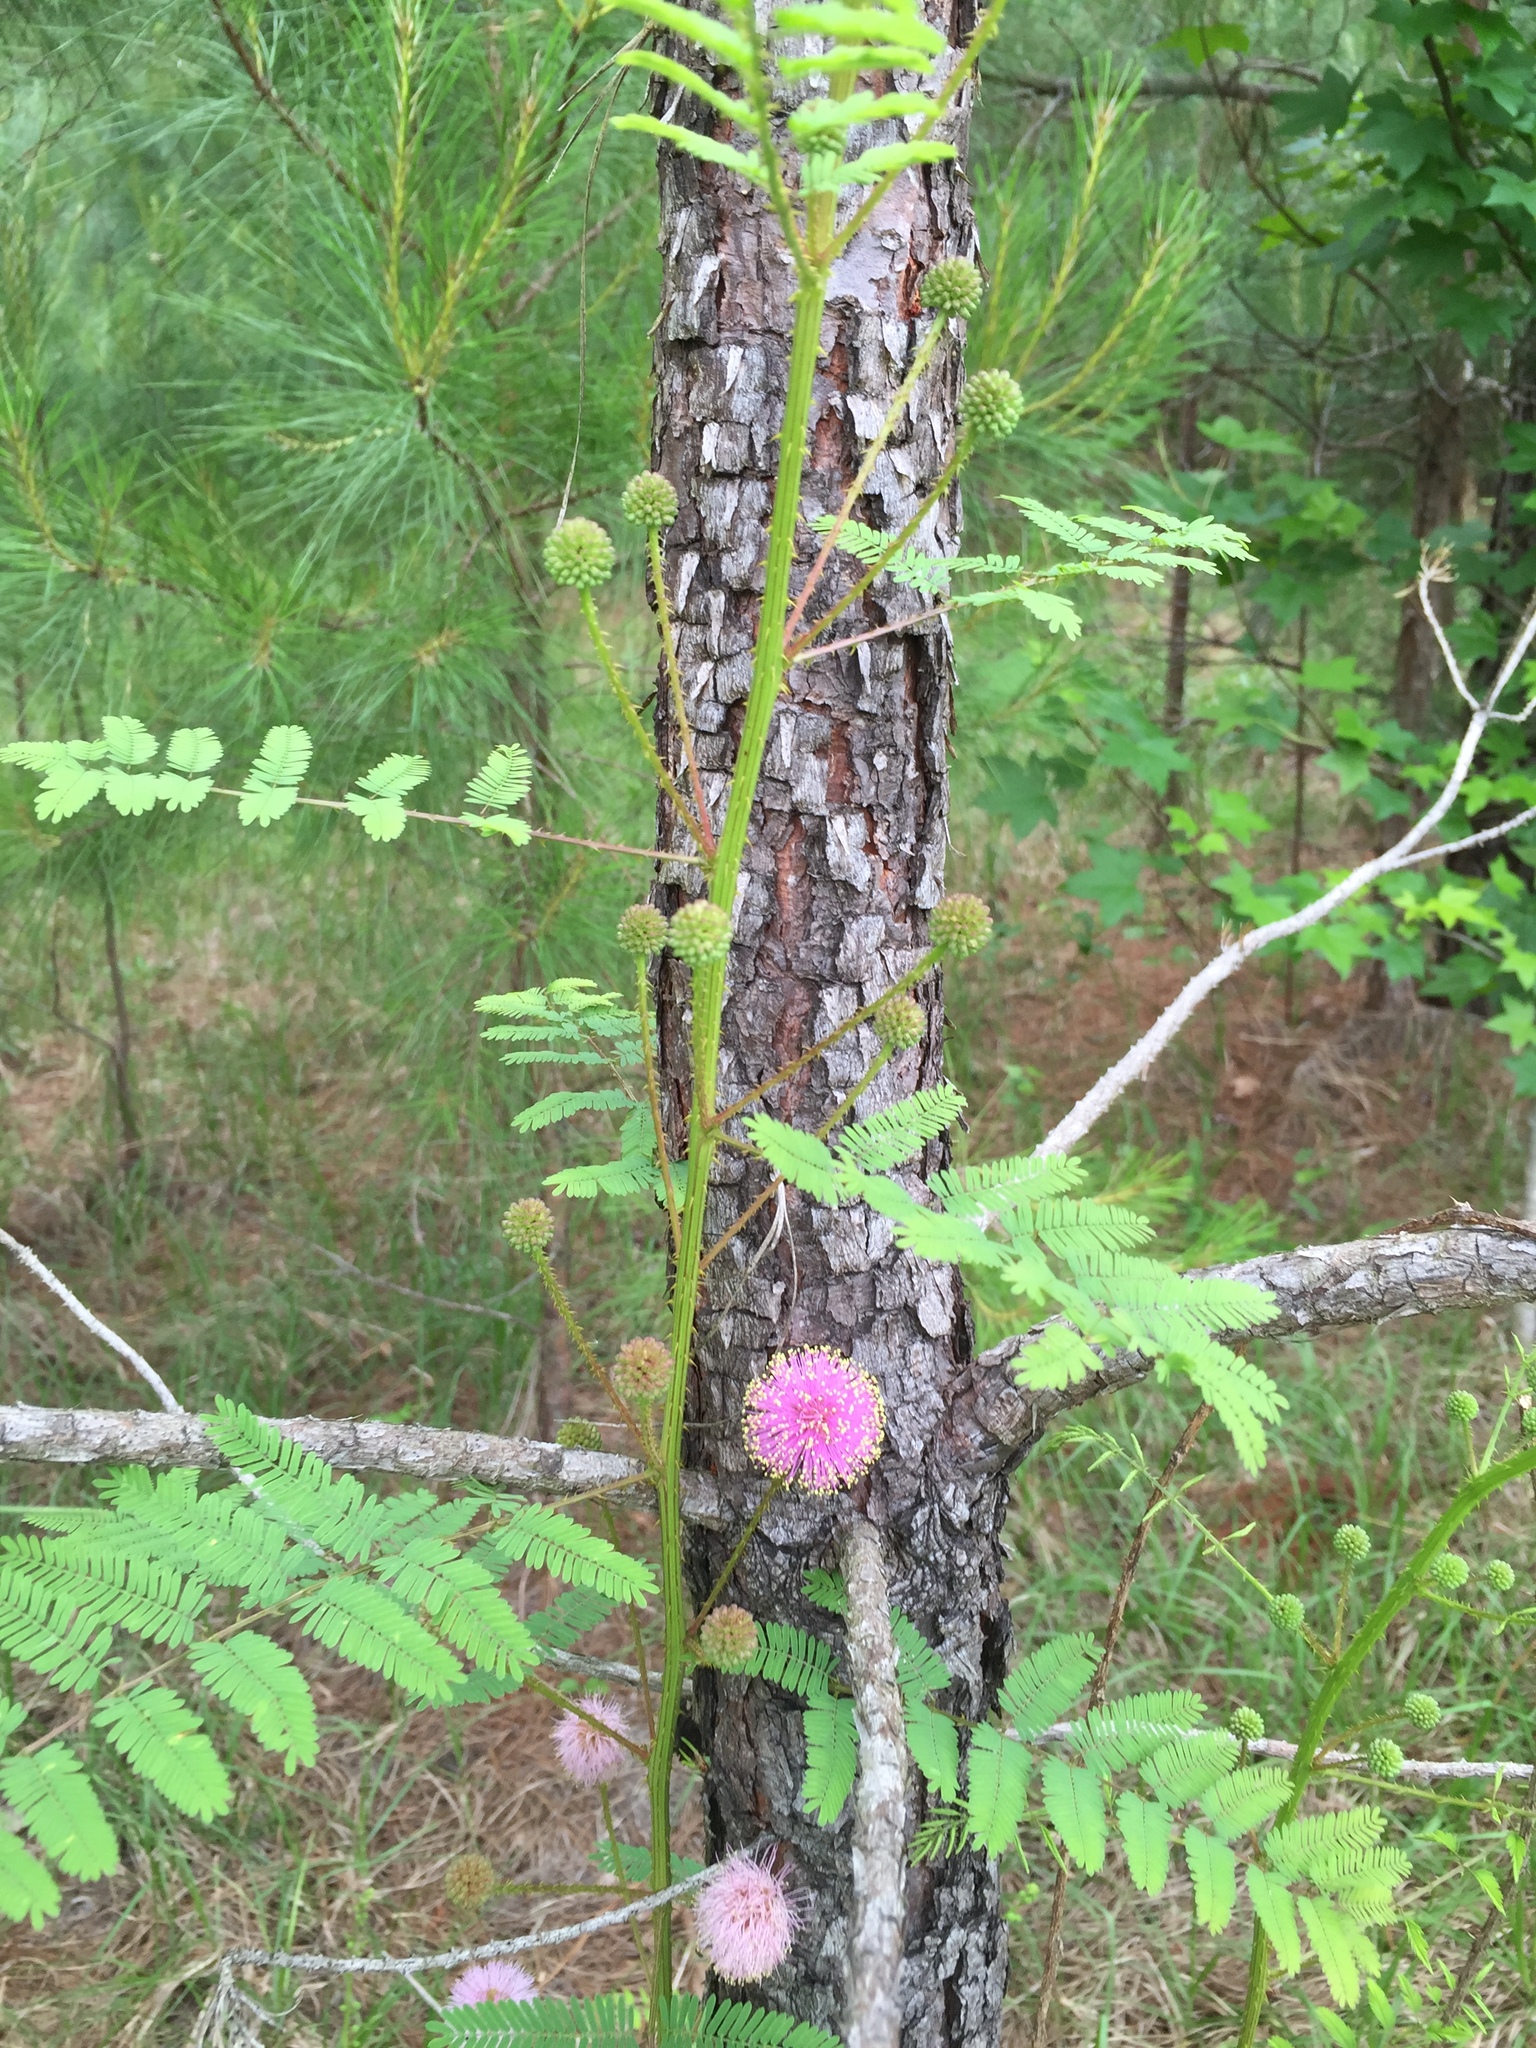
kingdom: Plantae
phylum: Tracheophyta
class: Magnoliopsida
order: Fabales
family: Fabaceae
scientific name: Fabaceae
